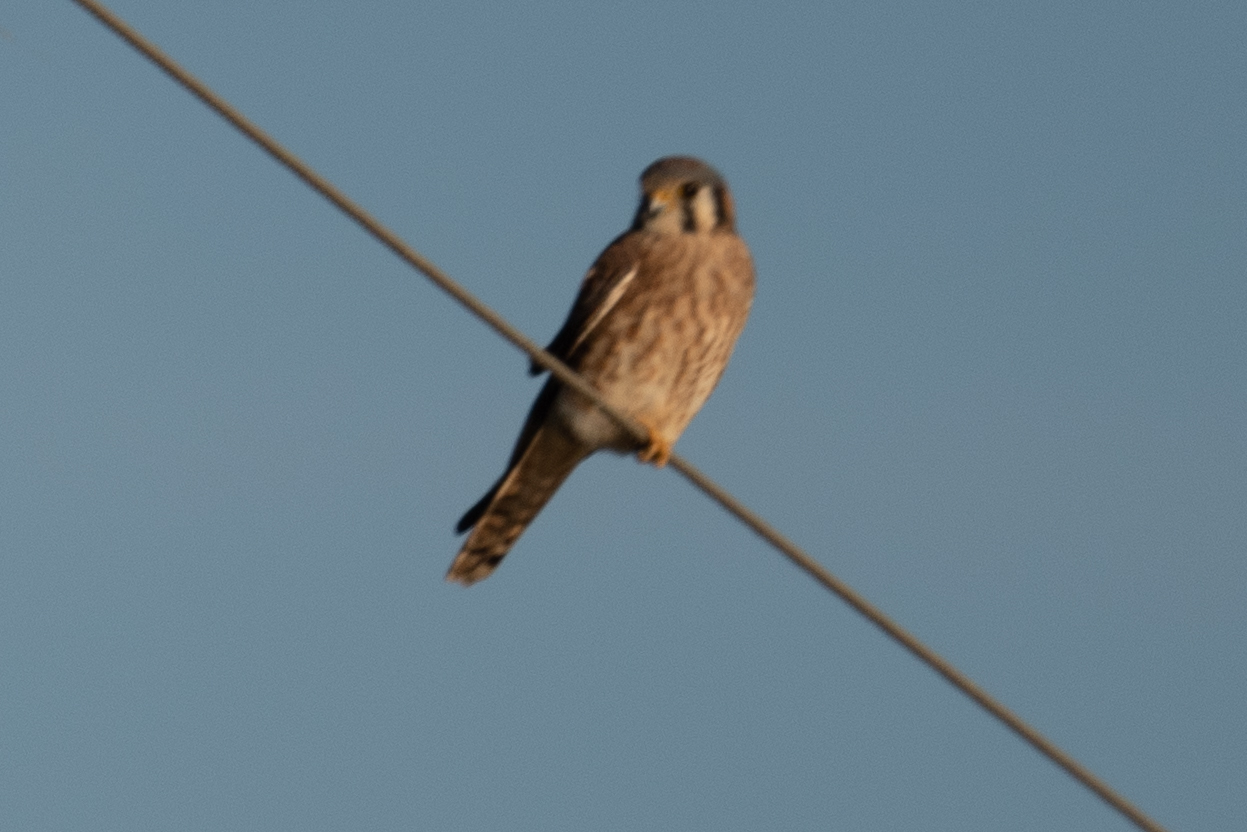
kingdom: Animalia
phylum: Chordata
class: Aves
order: Falconiformes
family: Falconidae
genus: Falco
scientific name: Falco sparverius
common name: American kestrel
